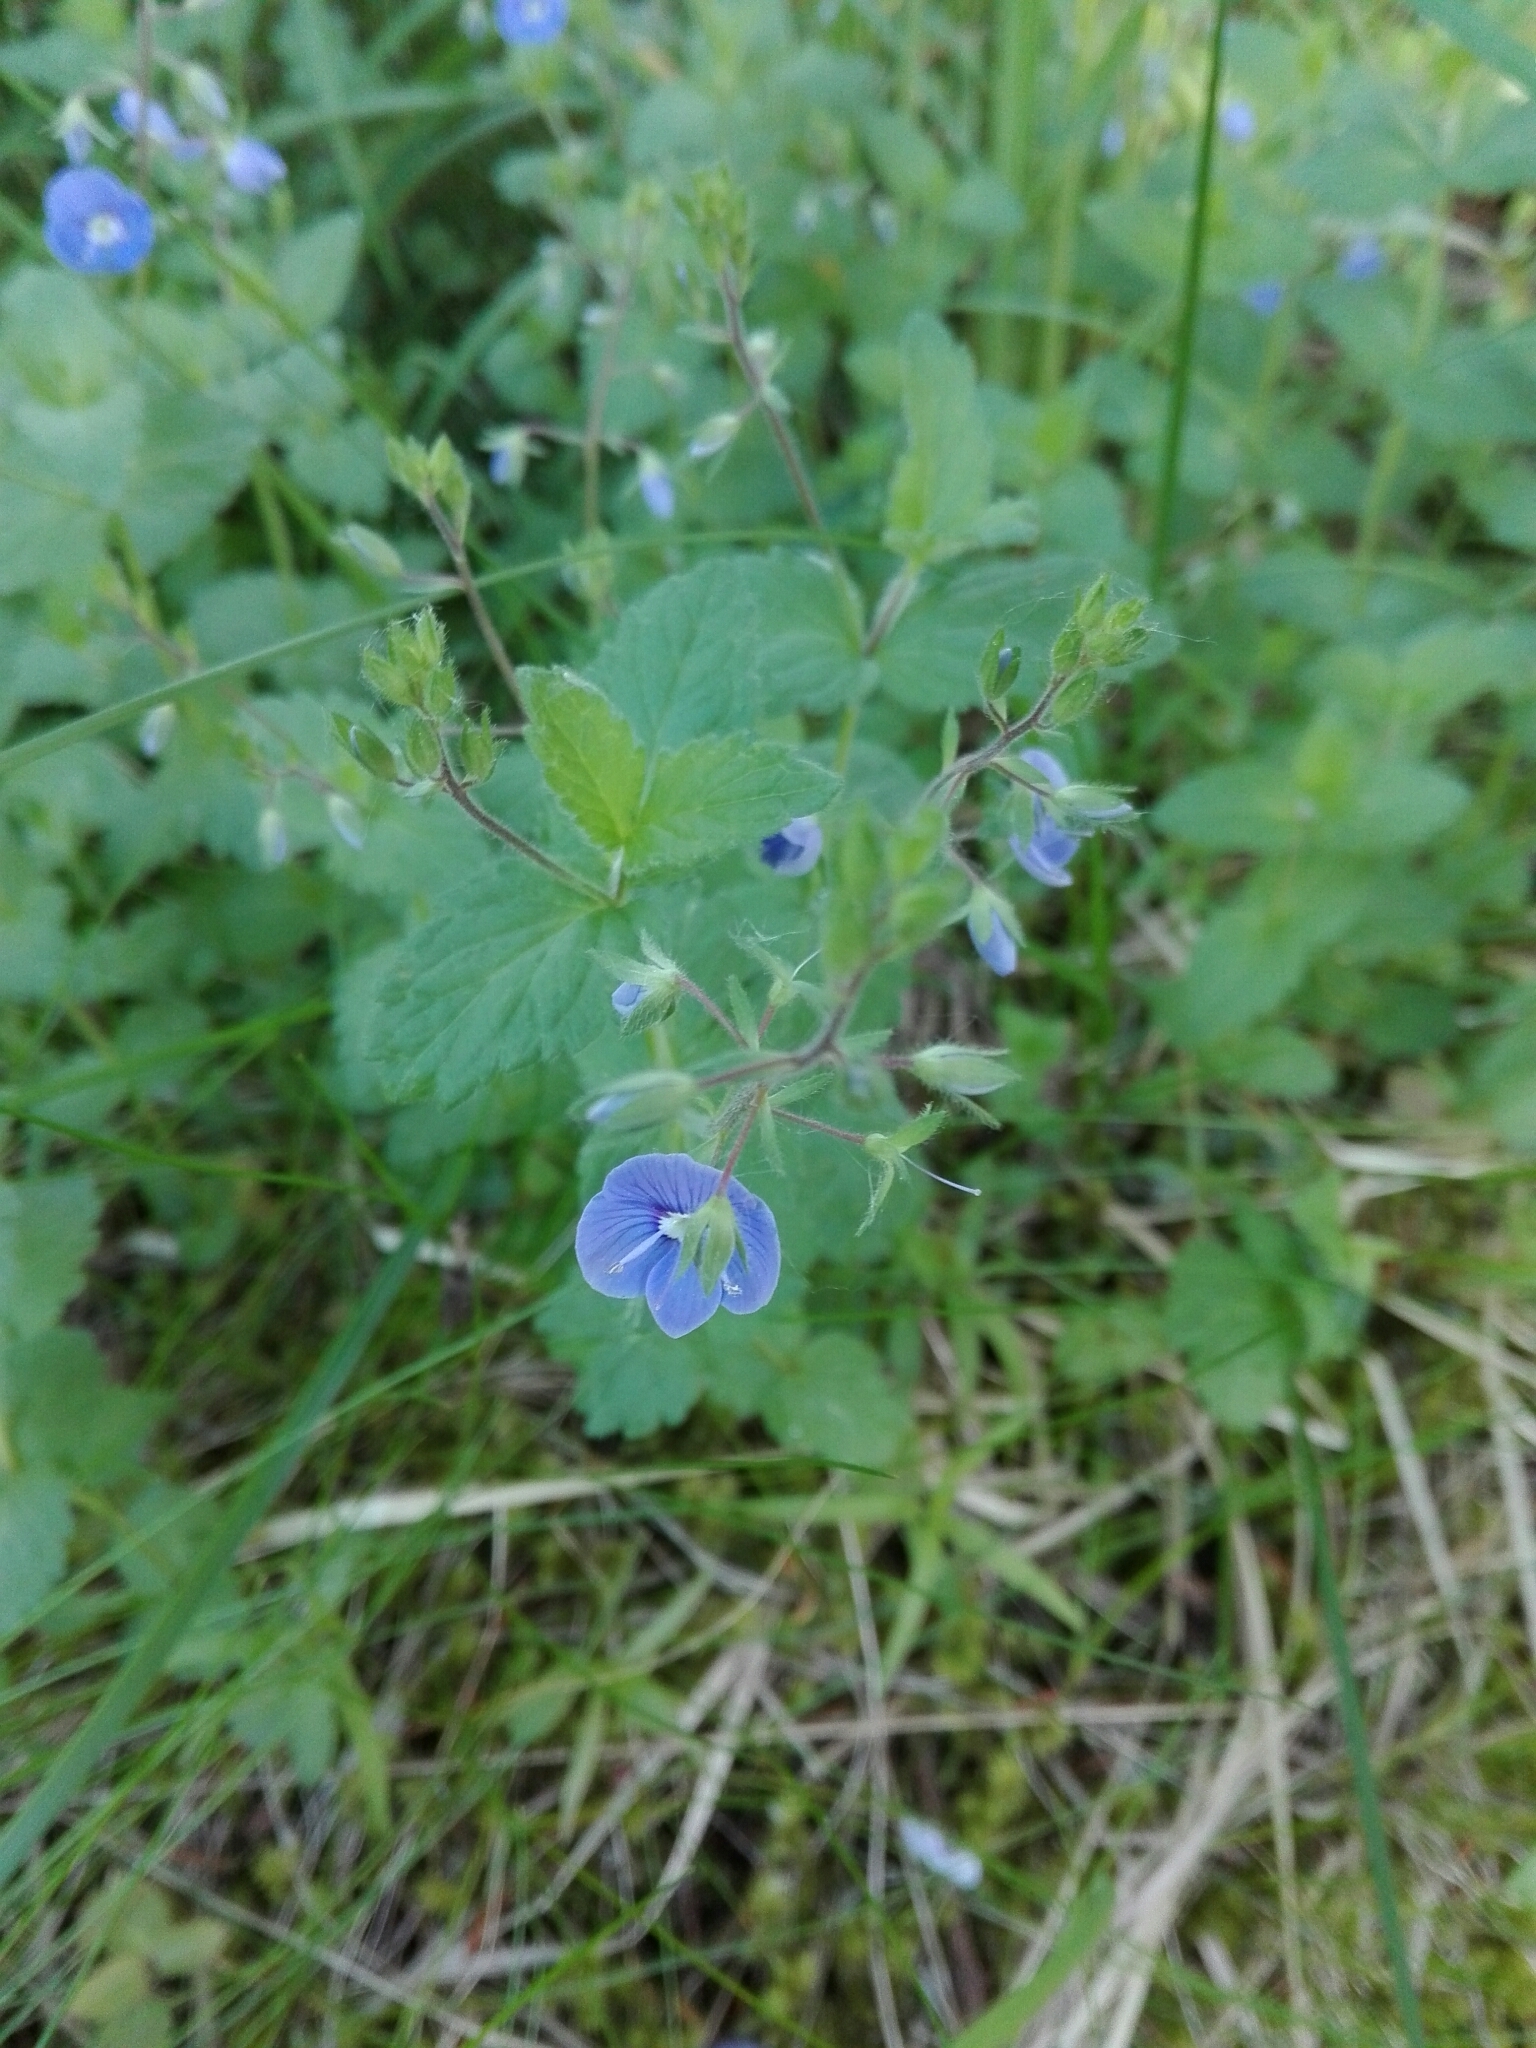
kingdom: Plantae
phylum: Tracheophyta
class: Magnoliopsida
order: Lamiales
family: Plantaginaceae
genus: Veronica
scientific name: Veronica chamaedrys
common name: Germander speedwell
